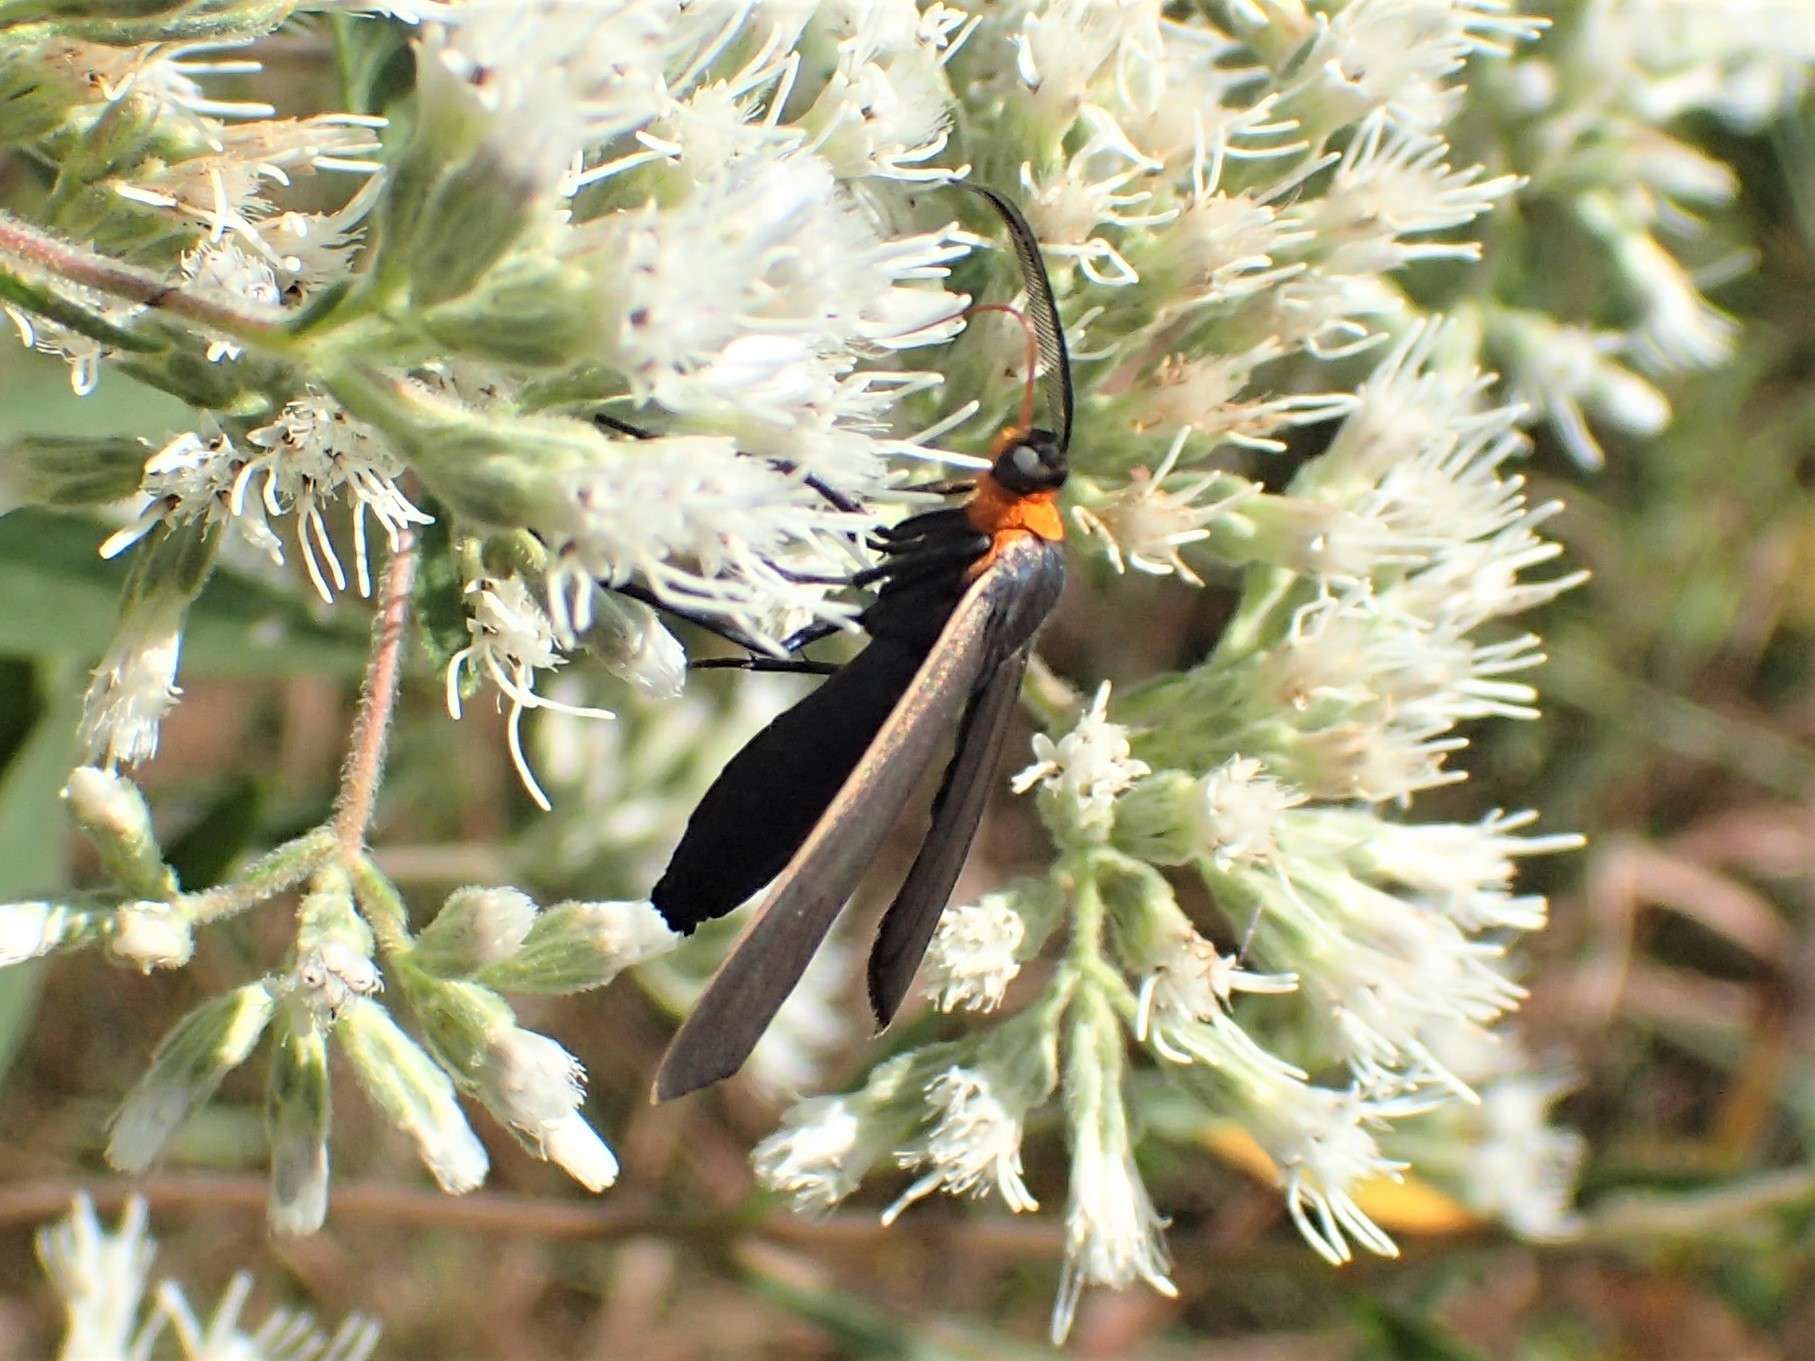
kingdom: Animalia
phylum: Arthropoda
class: Insecta
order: Lepidoptera
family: Erebidae
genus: Cisseps
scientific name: Cisseps fulvicollis
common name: Yellow-collared scape moth
